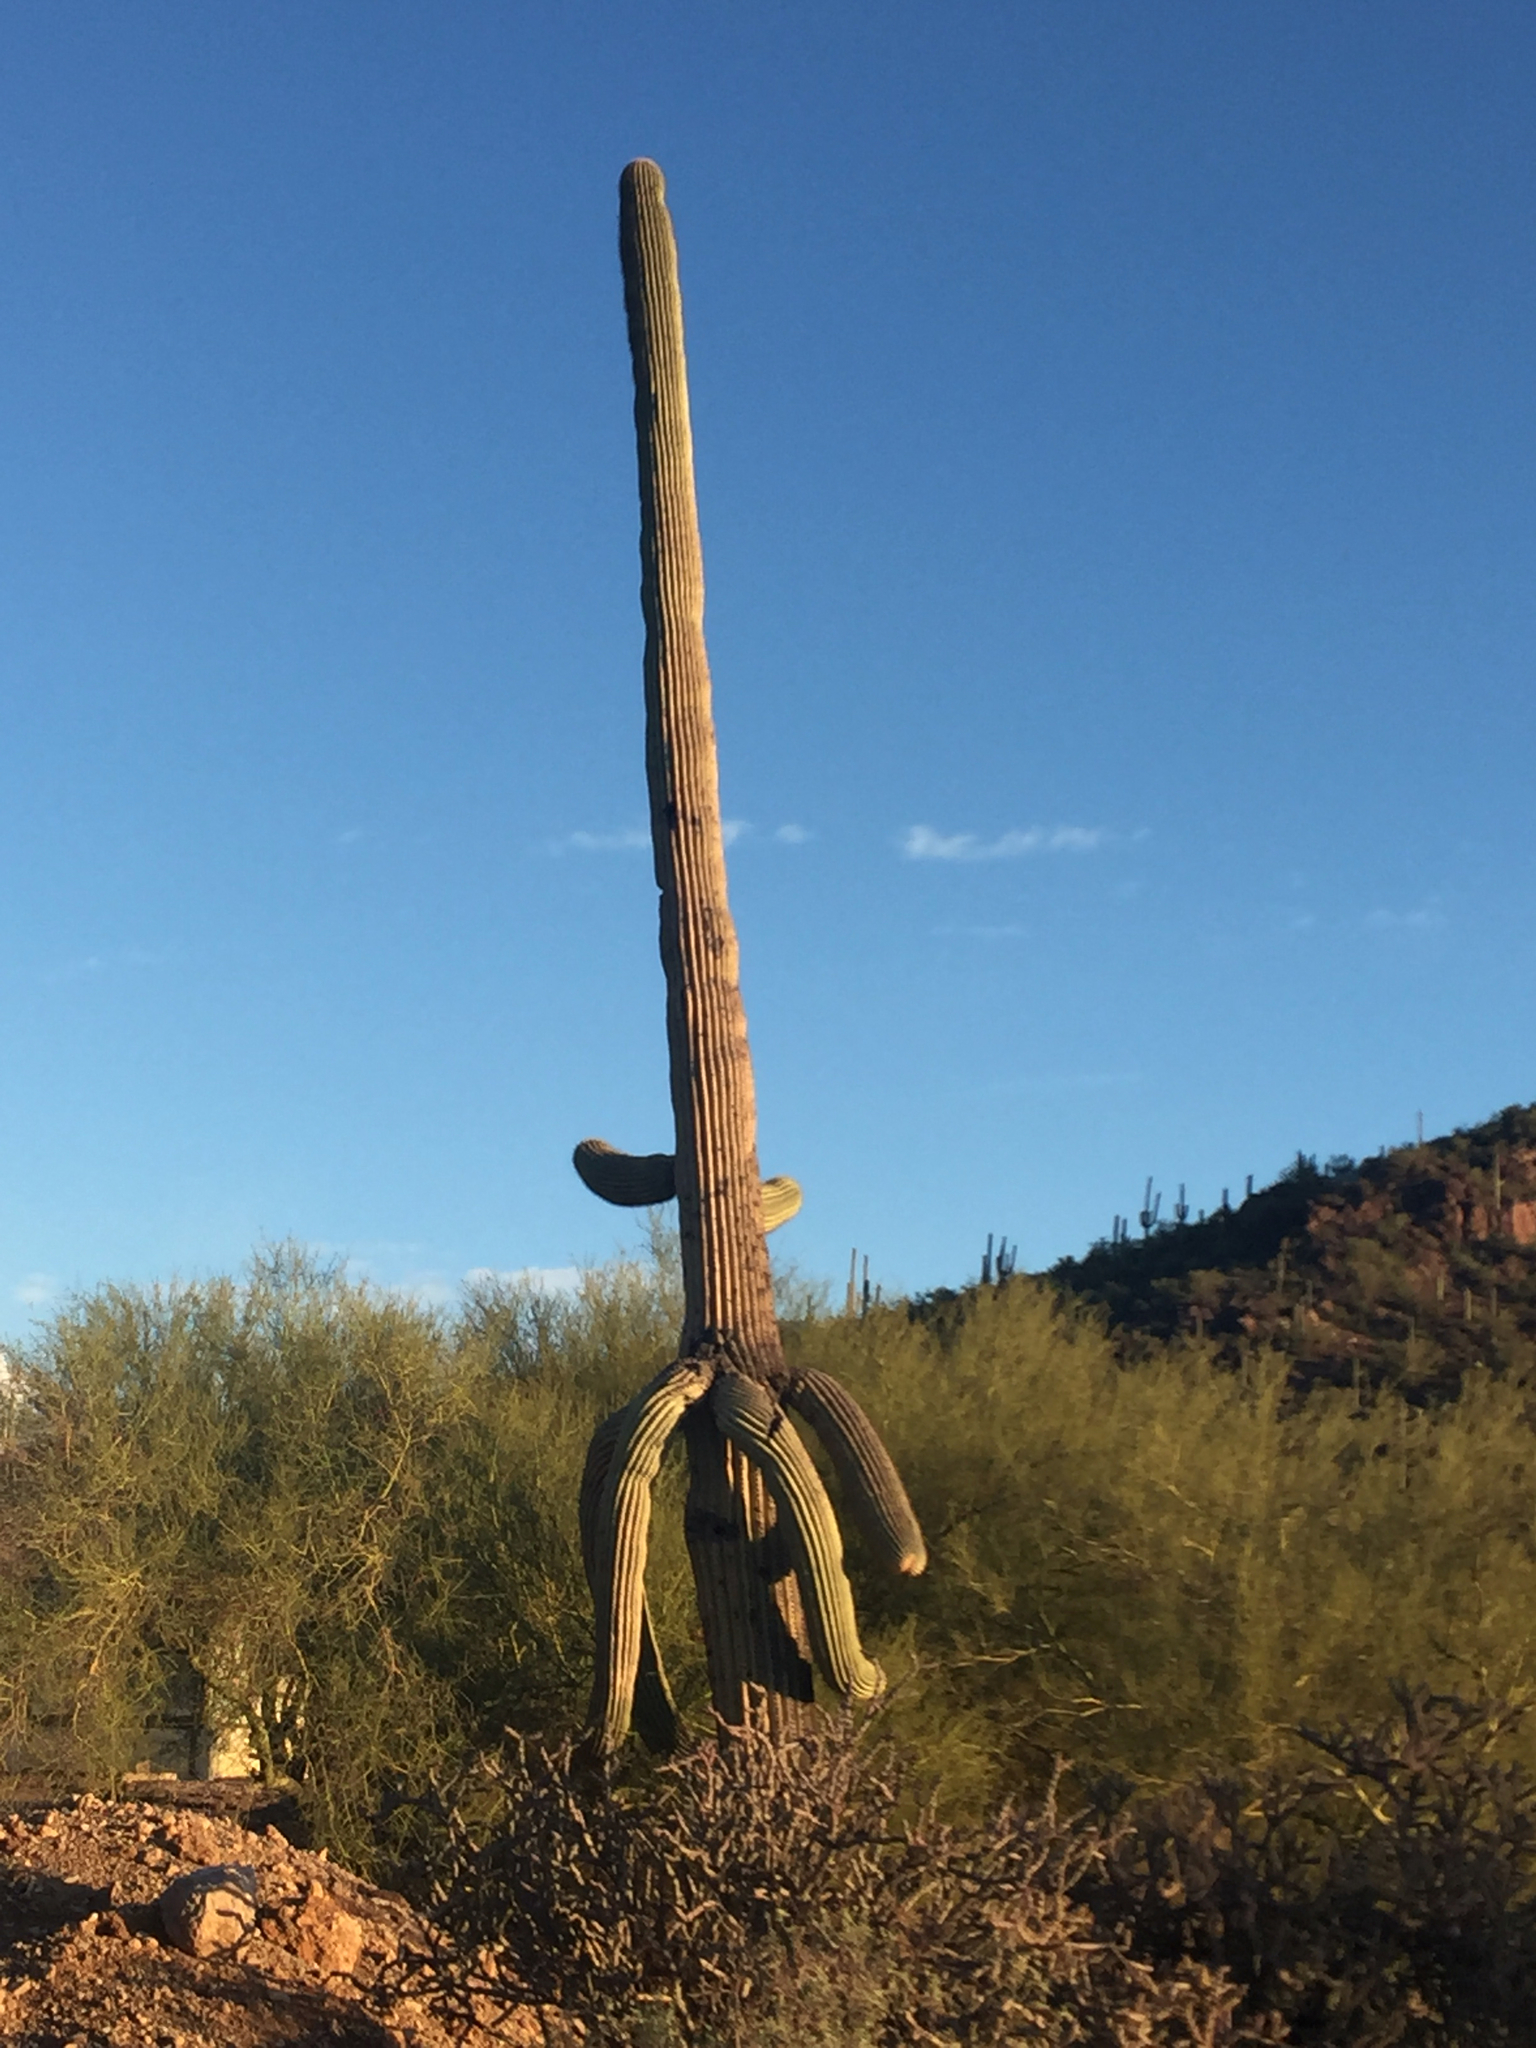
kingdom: Plantae
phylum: Tracheophyta
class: Magnoliopsida
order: Caryophyllales
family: Cactaceae
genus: Carnegiea
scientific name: Carnegiea gigantea
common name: Saguaro
